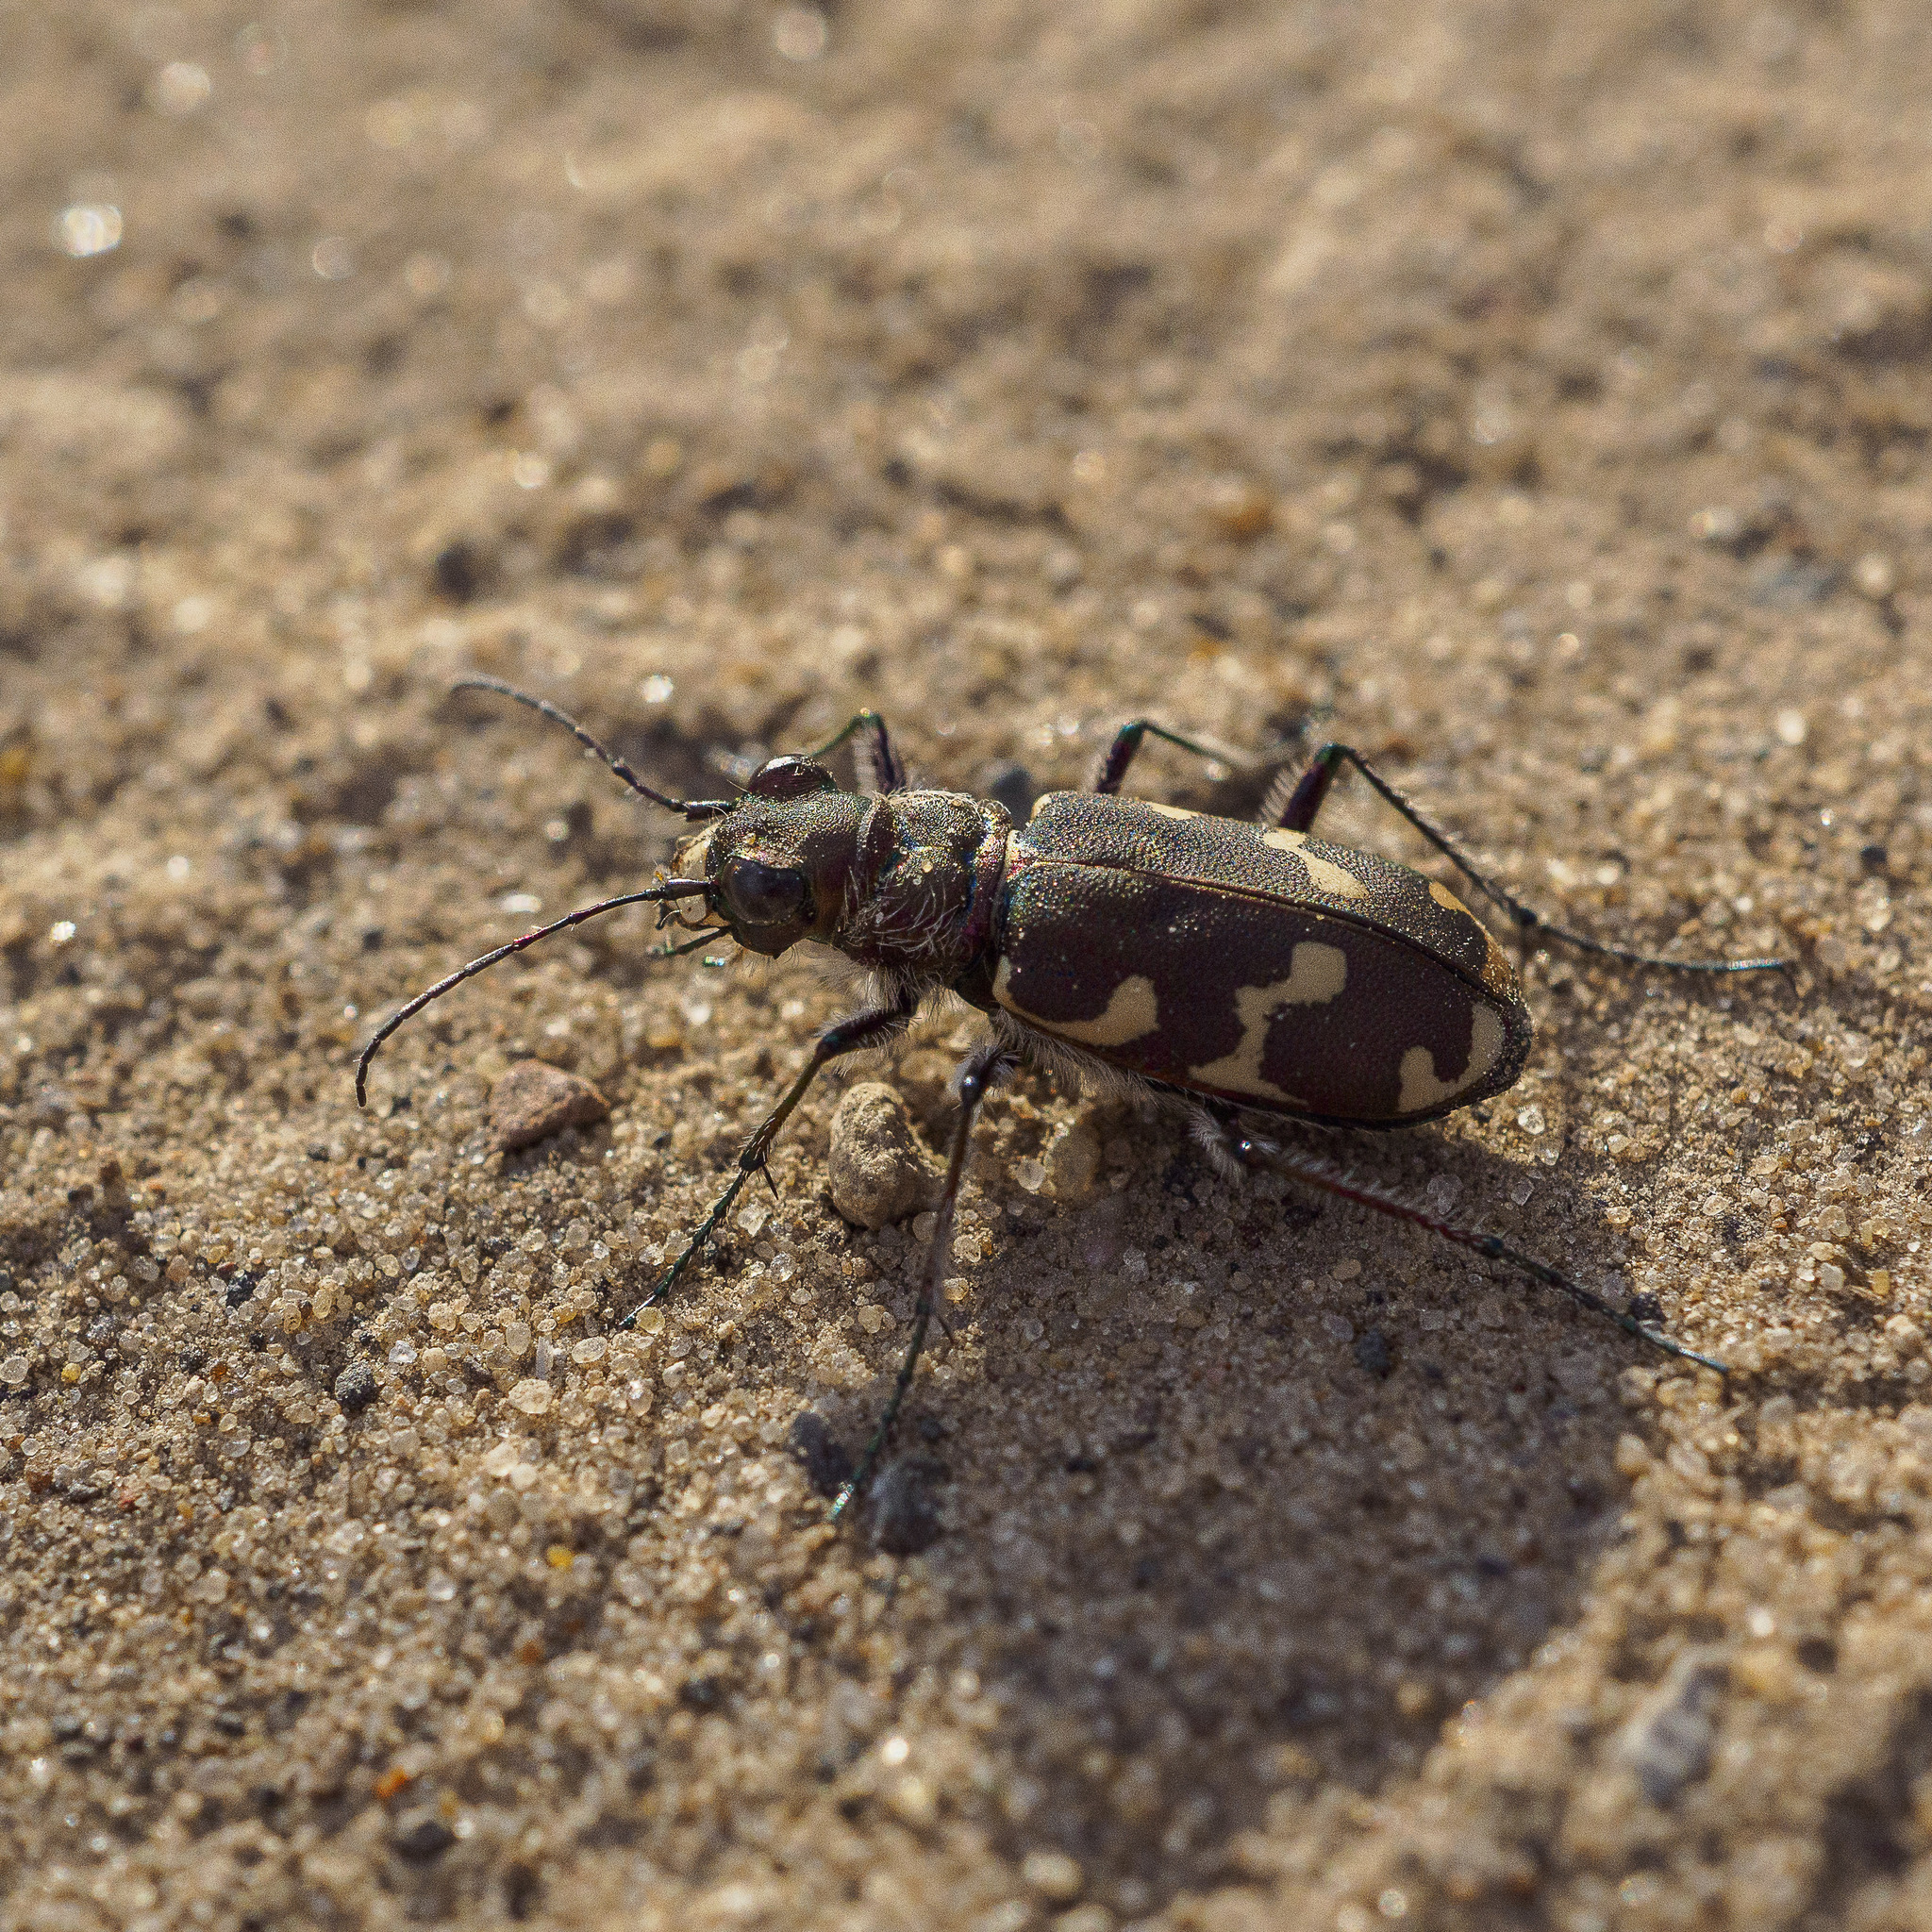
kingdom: Animalia
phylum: Arthropoda
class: Insecta
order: Coleoptera
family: Carabidae
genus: Cicindela
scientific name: Cicindela hybrida
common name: Northern dune tiger beetle
